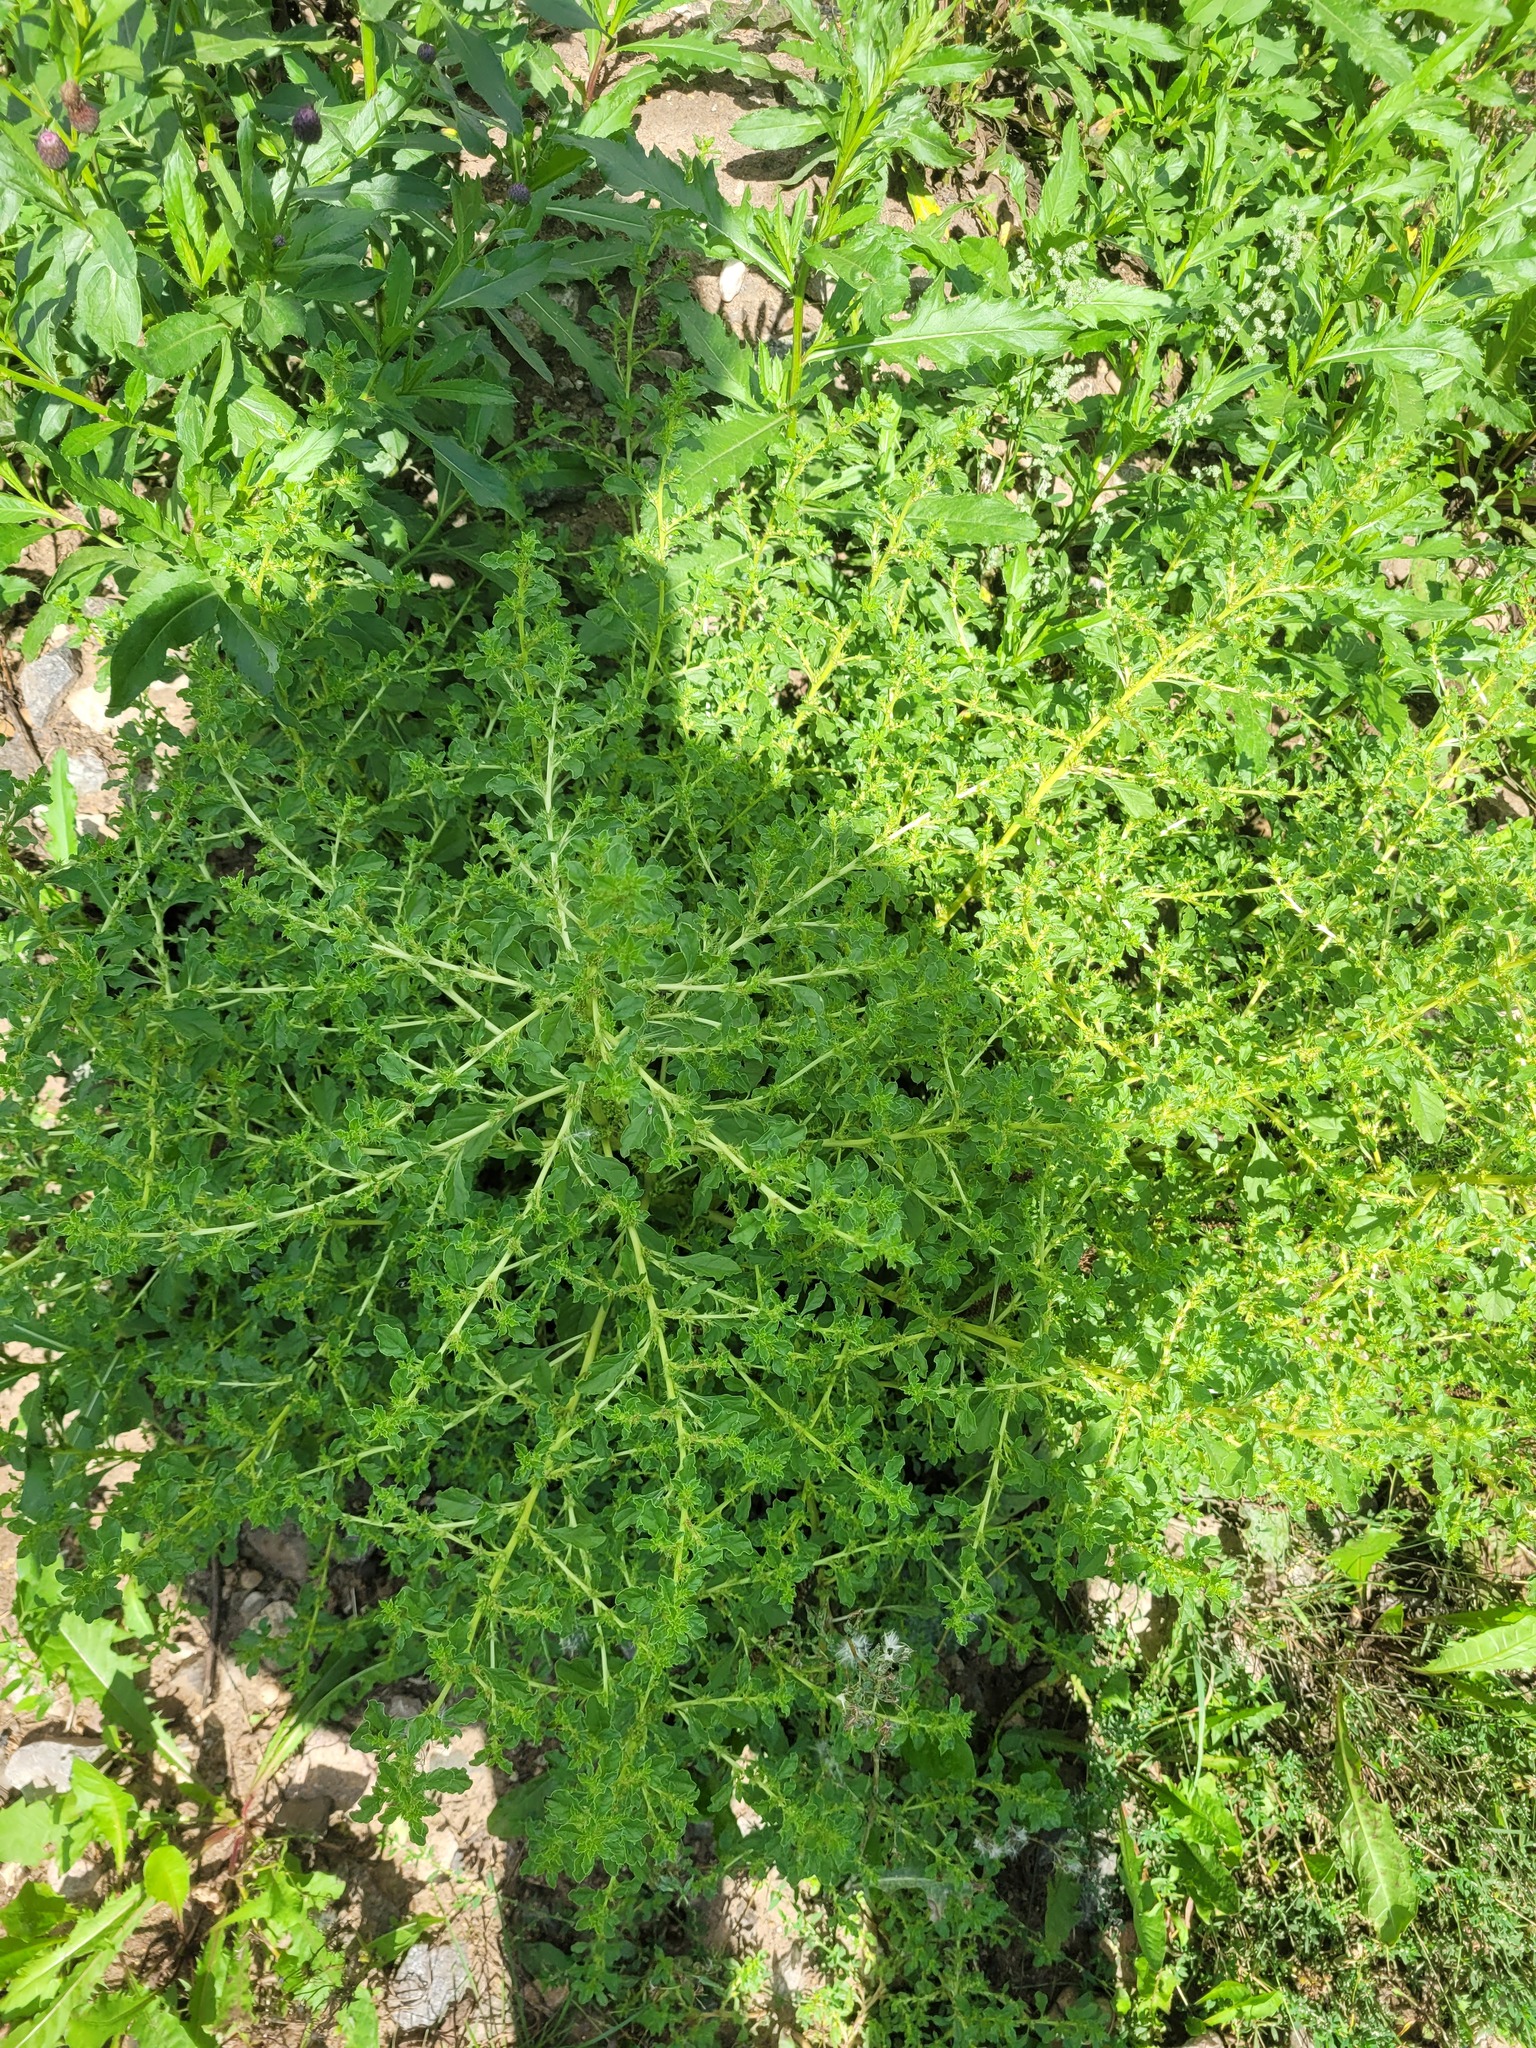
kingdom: Plantae
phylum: Tracheophyta
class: Magnoliopsida
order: Caryophyllales
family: Amaranthaceae
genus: Amaranthus
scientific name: Amaranthus albus
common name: White pigweed
